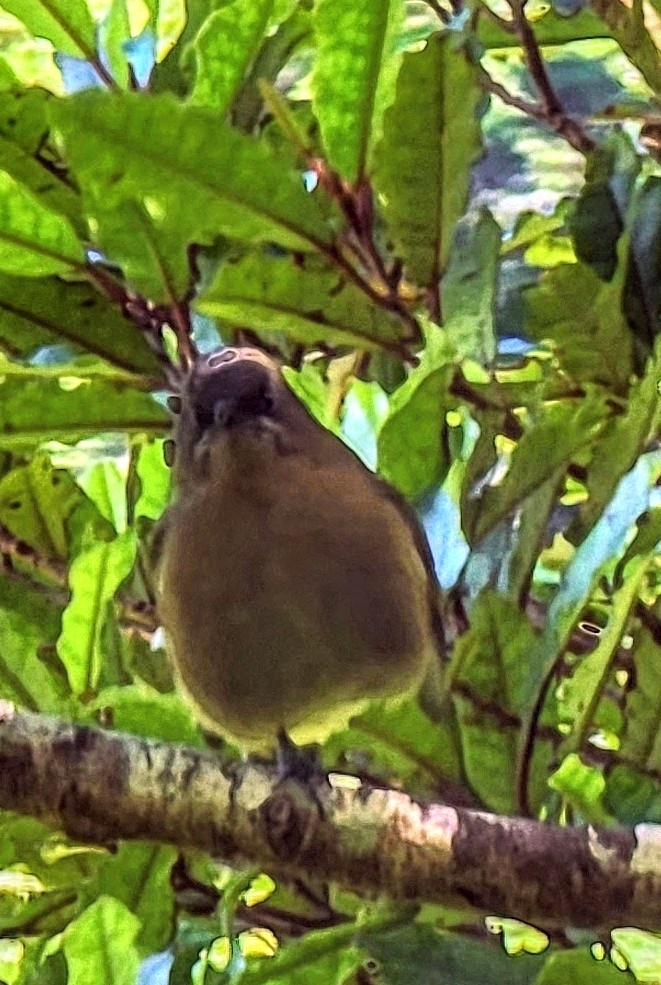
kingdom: Animalia
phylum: Chordata
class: Aves
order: Passeriformes
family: Meliphagidae
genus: Anthornis
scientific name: Anthornis melanura
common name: New zealand bellbird
